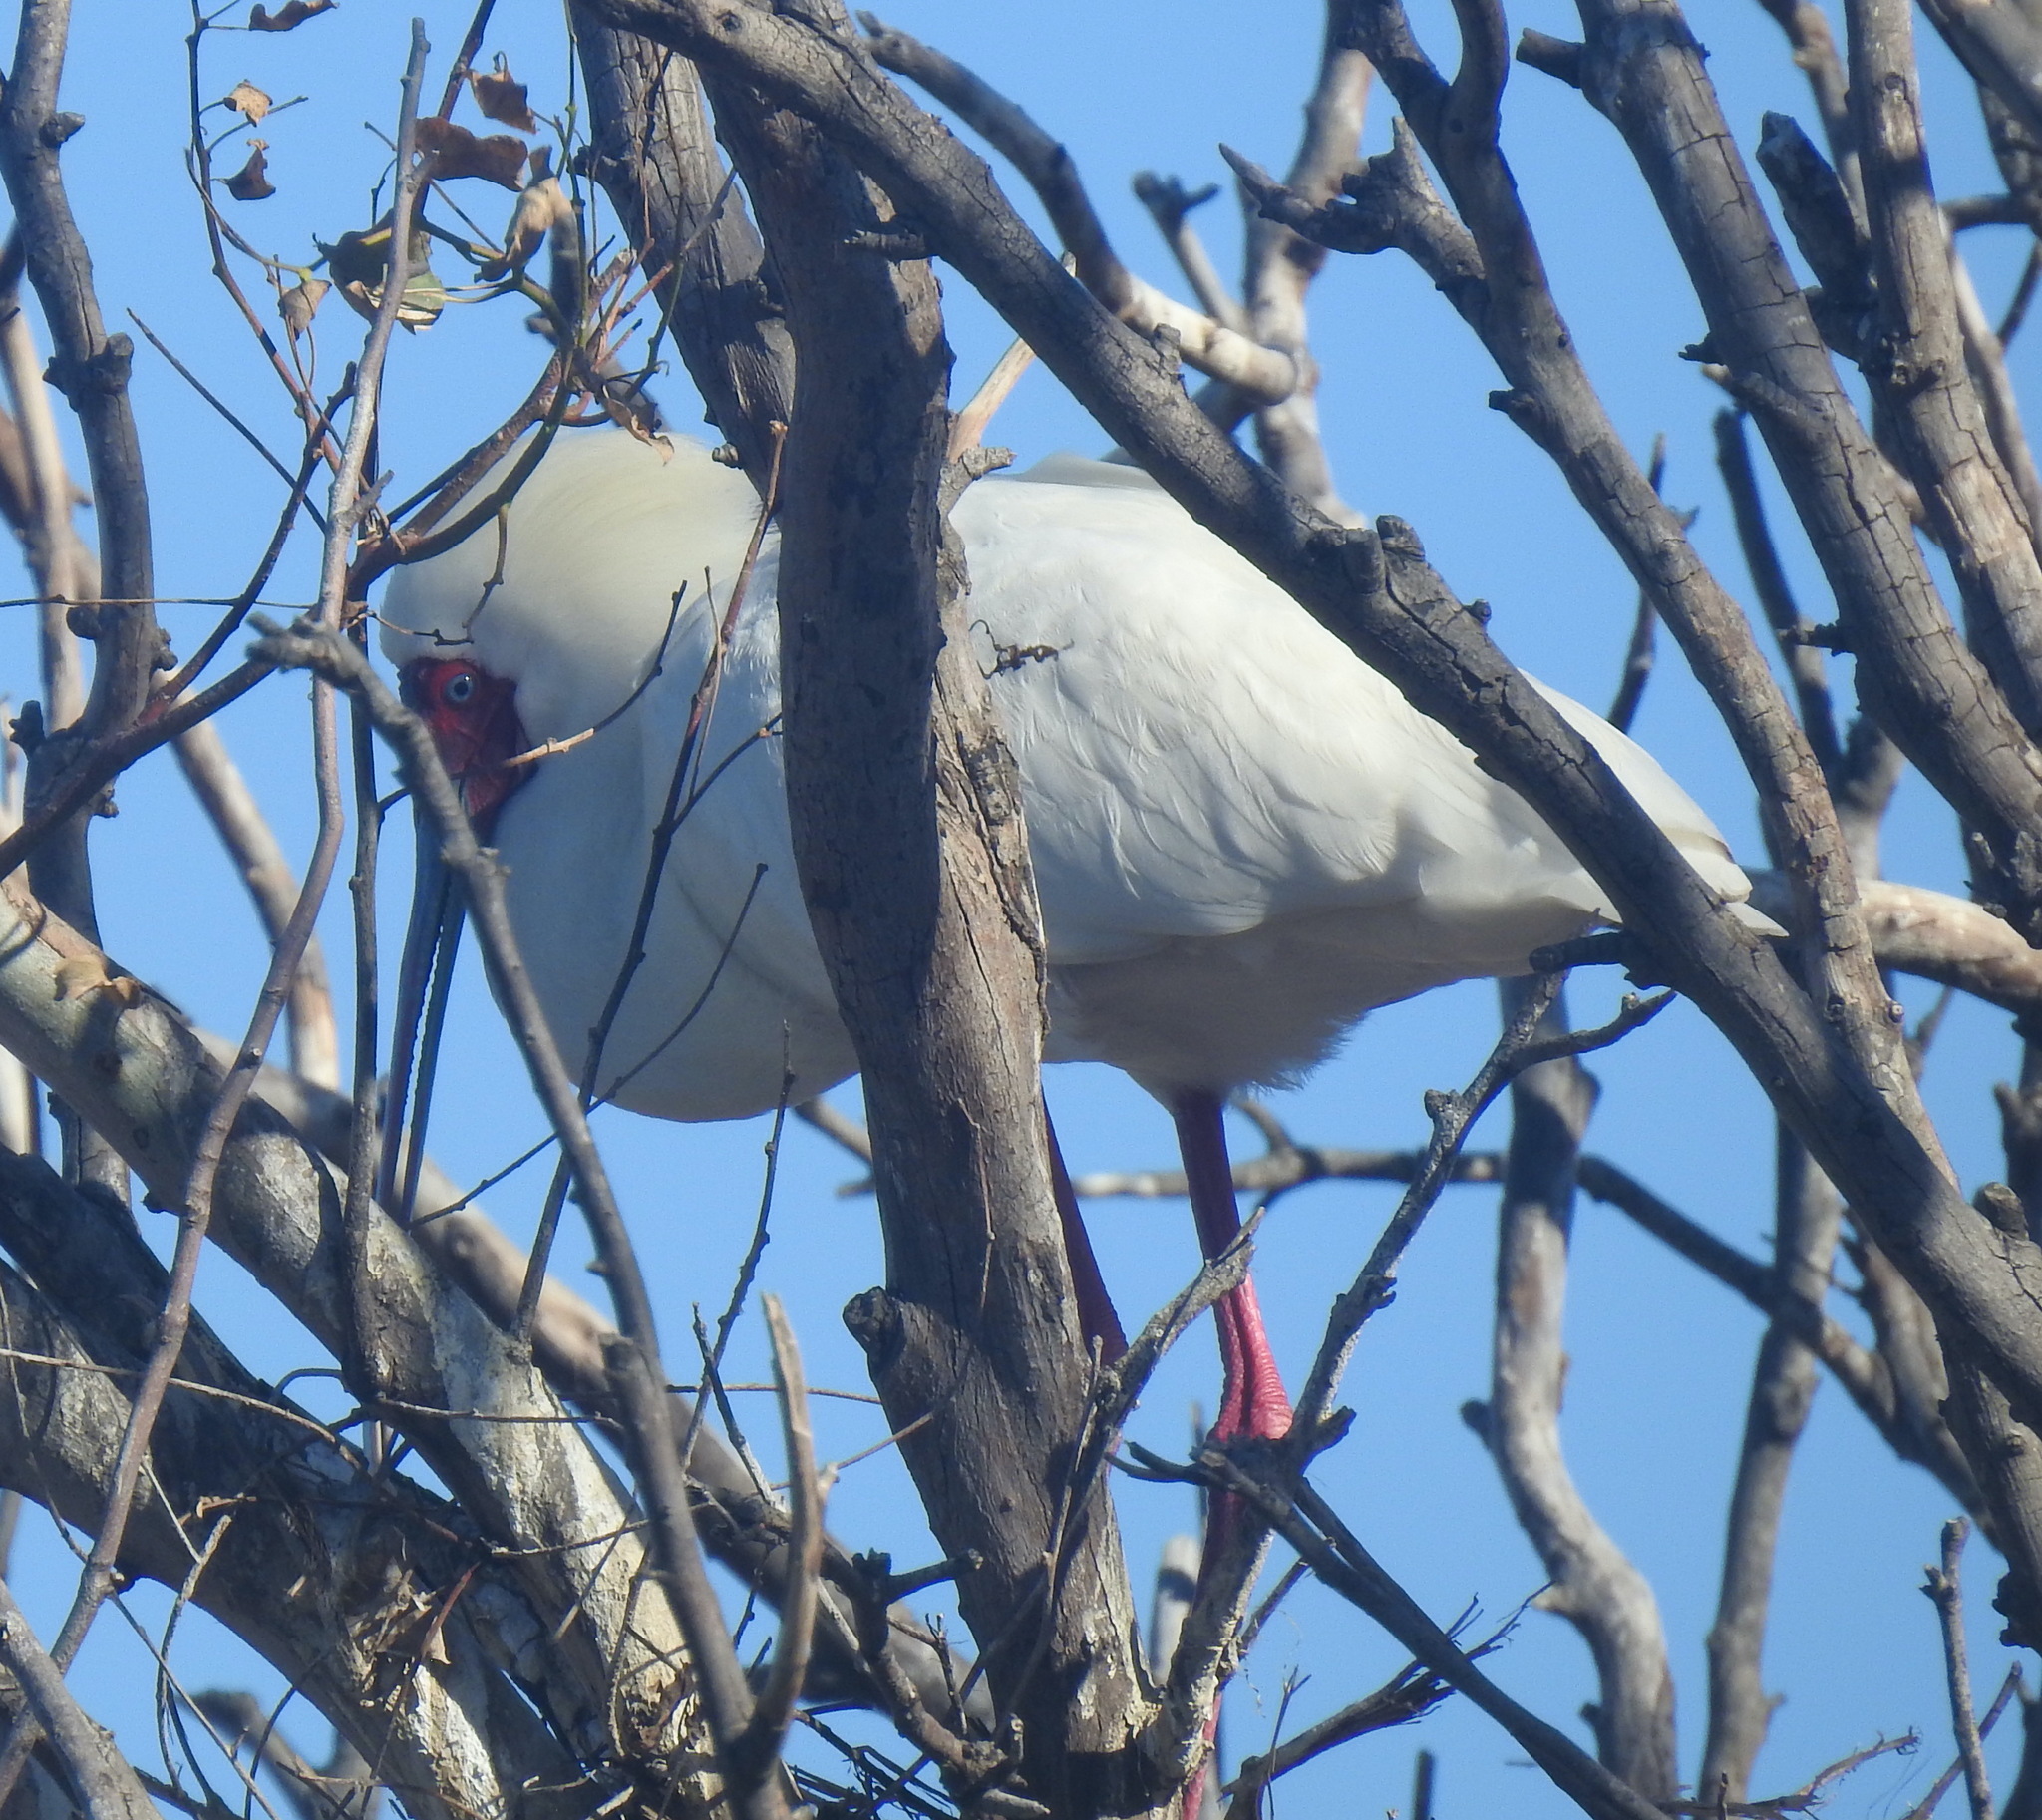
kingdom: Animalia
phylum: Chordata
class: Aves
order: Pelecaniformes
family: Threskiornithidae
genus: Platalea
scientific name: Platalea alba
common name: African spoonbill
